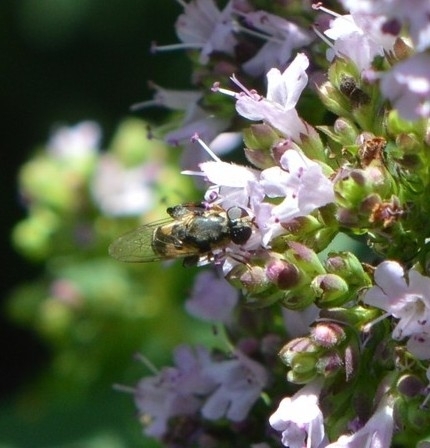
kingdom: Animalia
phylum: Arthropoda
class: Insecta
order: Diptera
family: Syrphidae
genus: Syritta
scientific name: Syritta pipiens
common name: Hover fly
